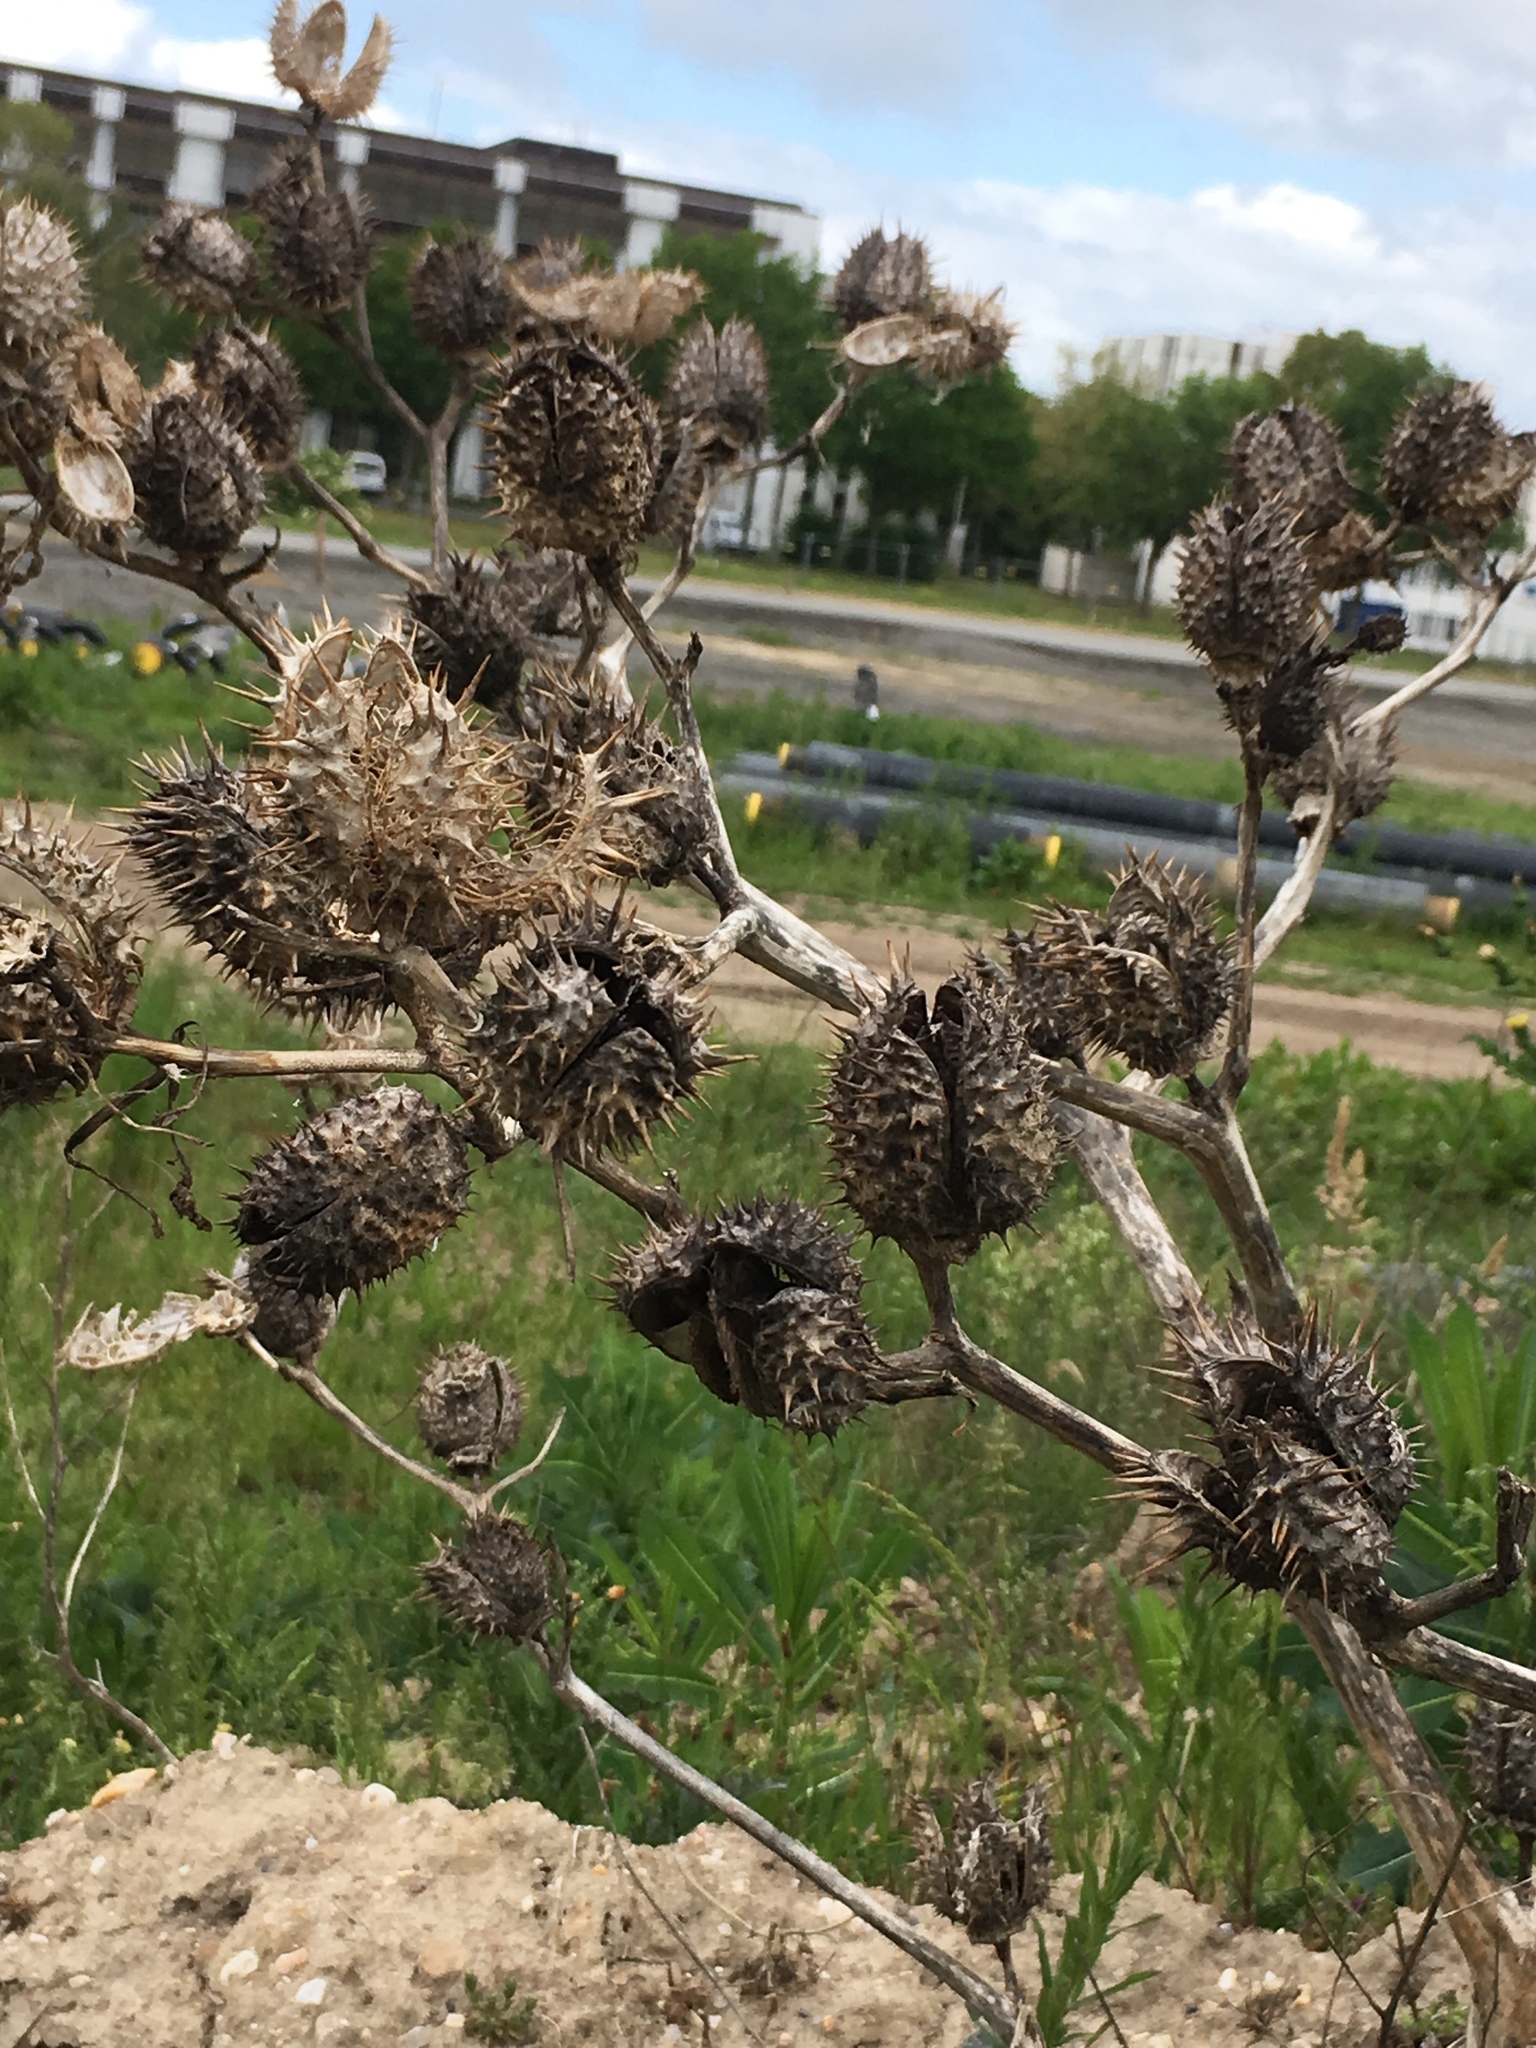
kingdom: Plantae
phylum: Tracheophyta
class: Magnoliopsida
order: Solanales
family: Solanaceae
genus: Datura
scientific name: Datura stramonium
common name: Thorn-apple
